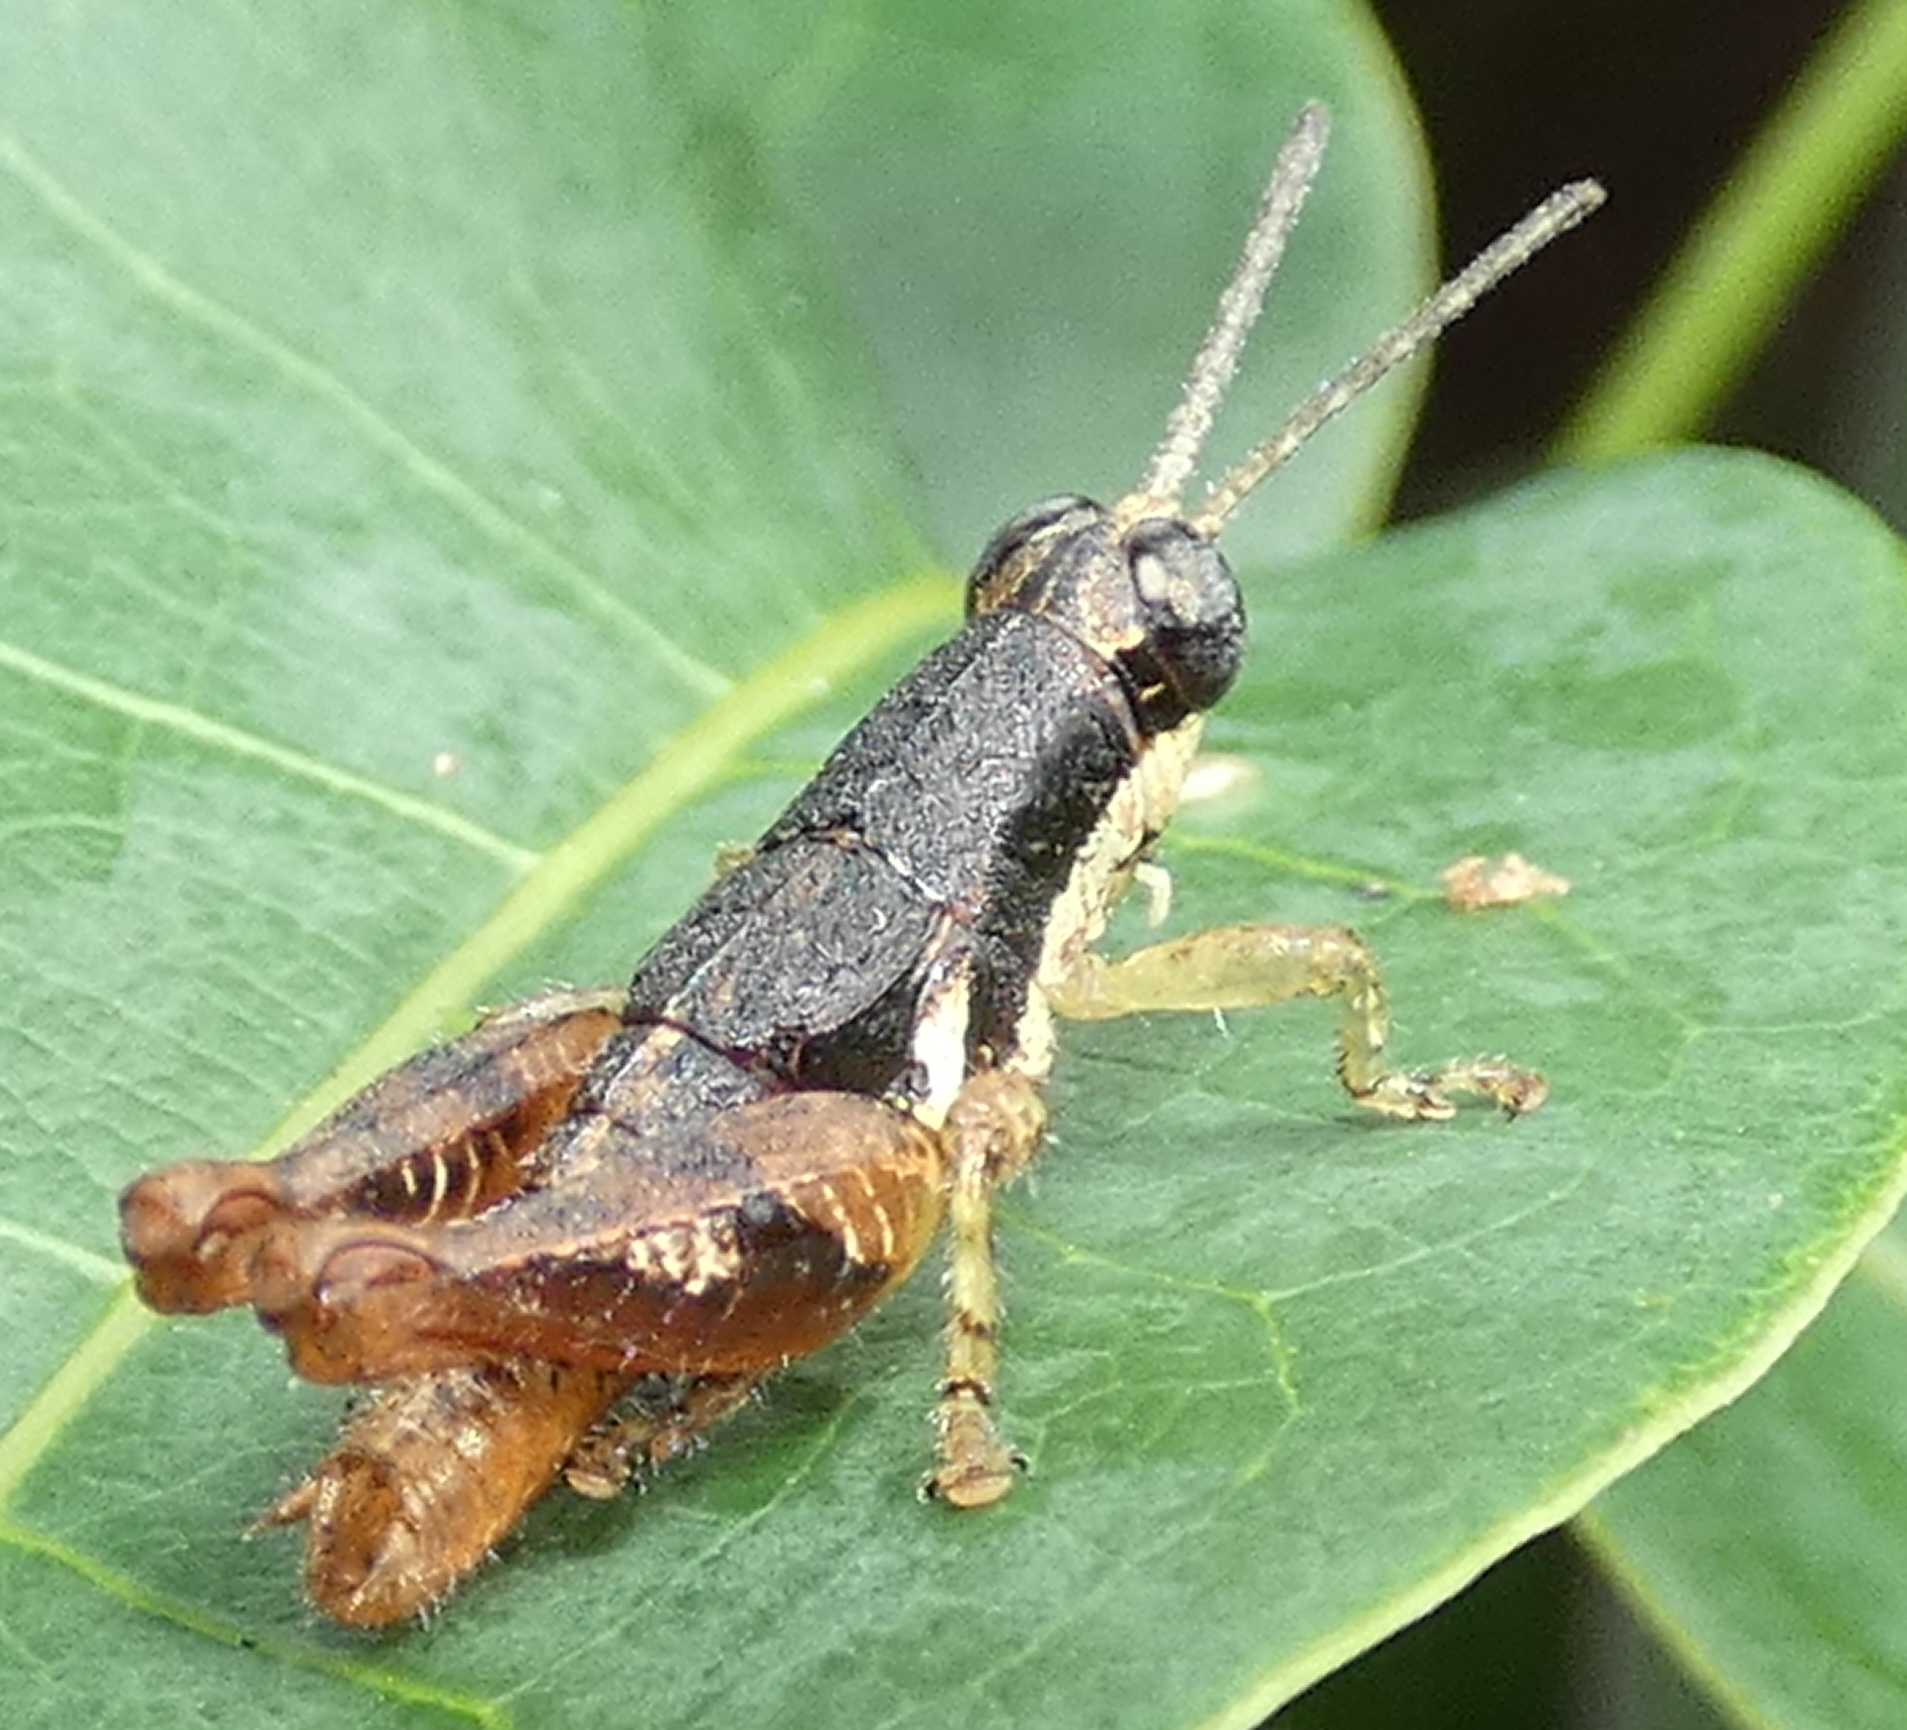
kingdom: Animalia
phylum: Arthropoda
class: Insecta
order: Orthoptera
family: Acrididae
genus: Eujivarus
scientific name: Eujivarus meridionalis
